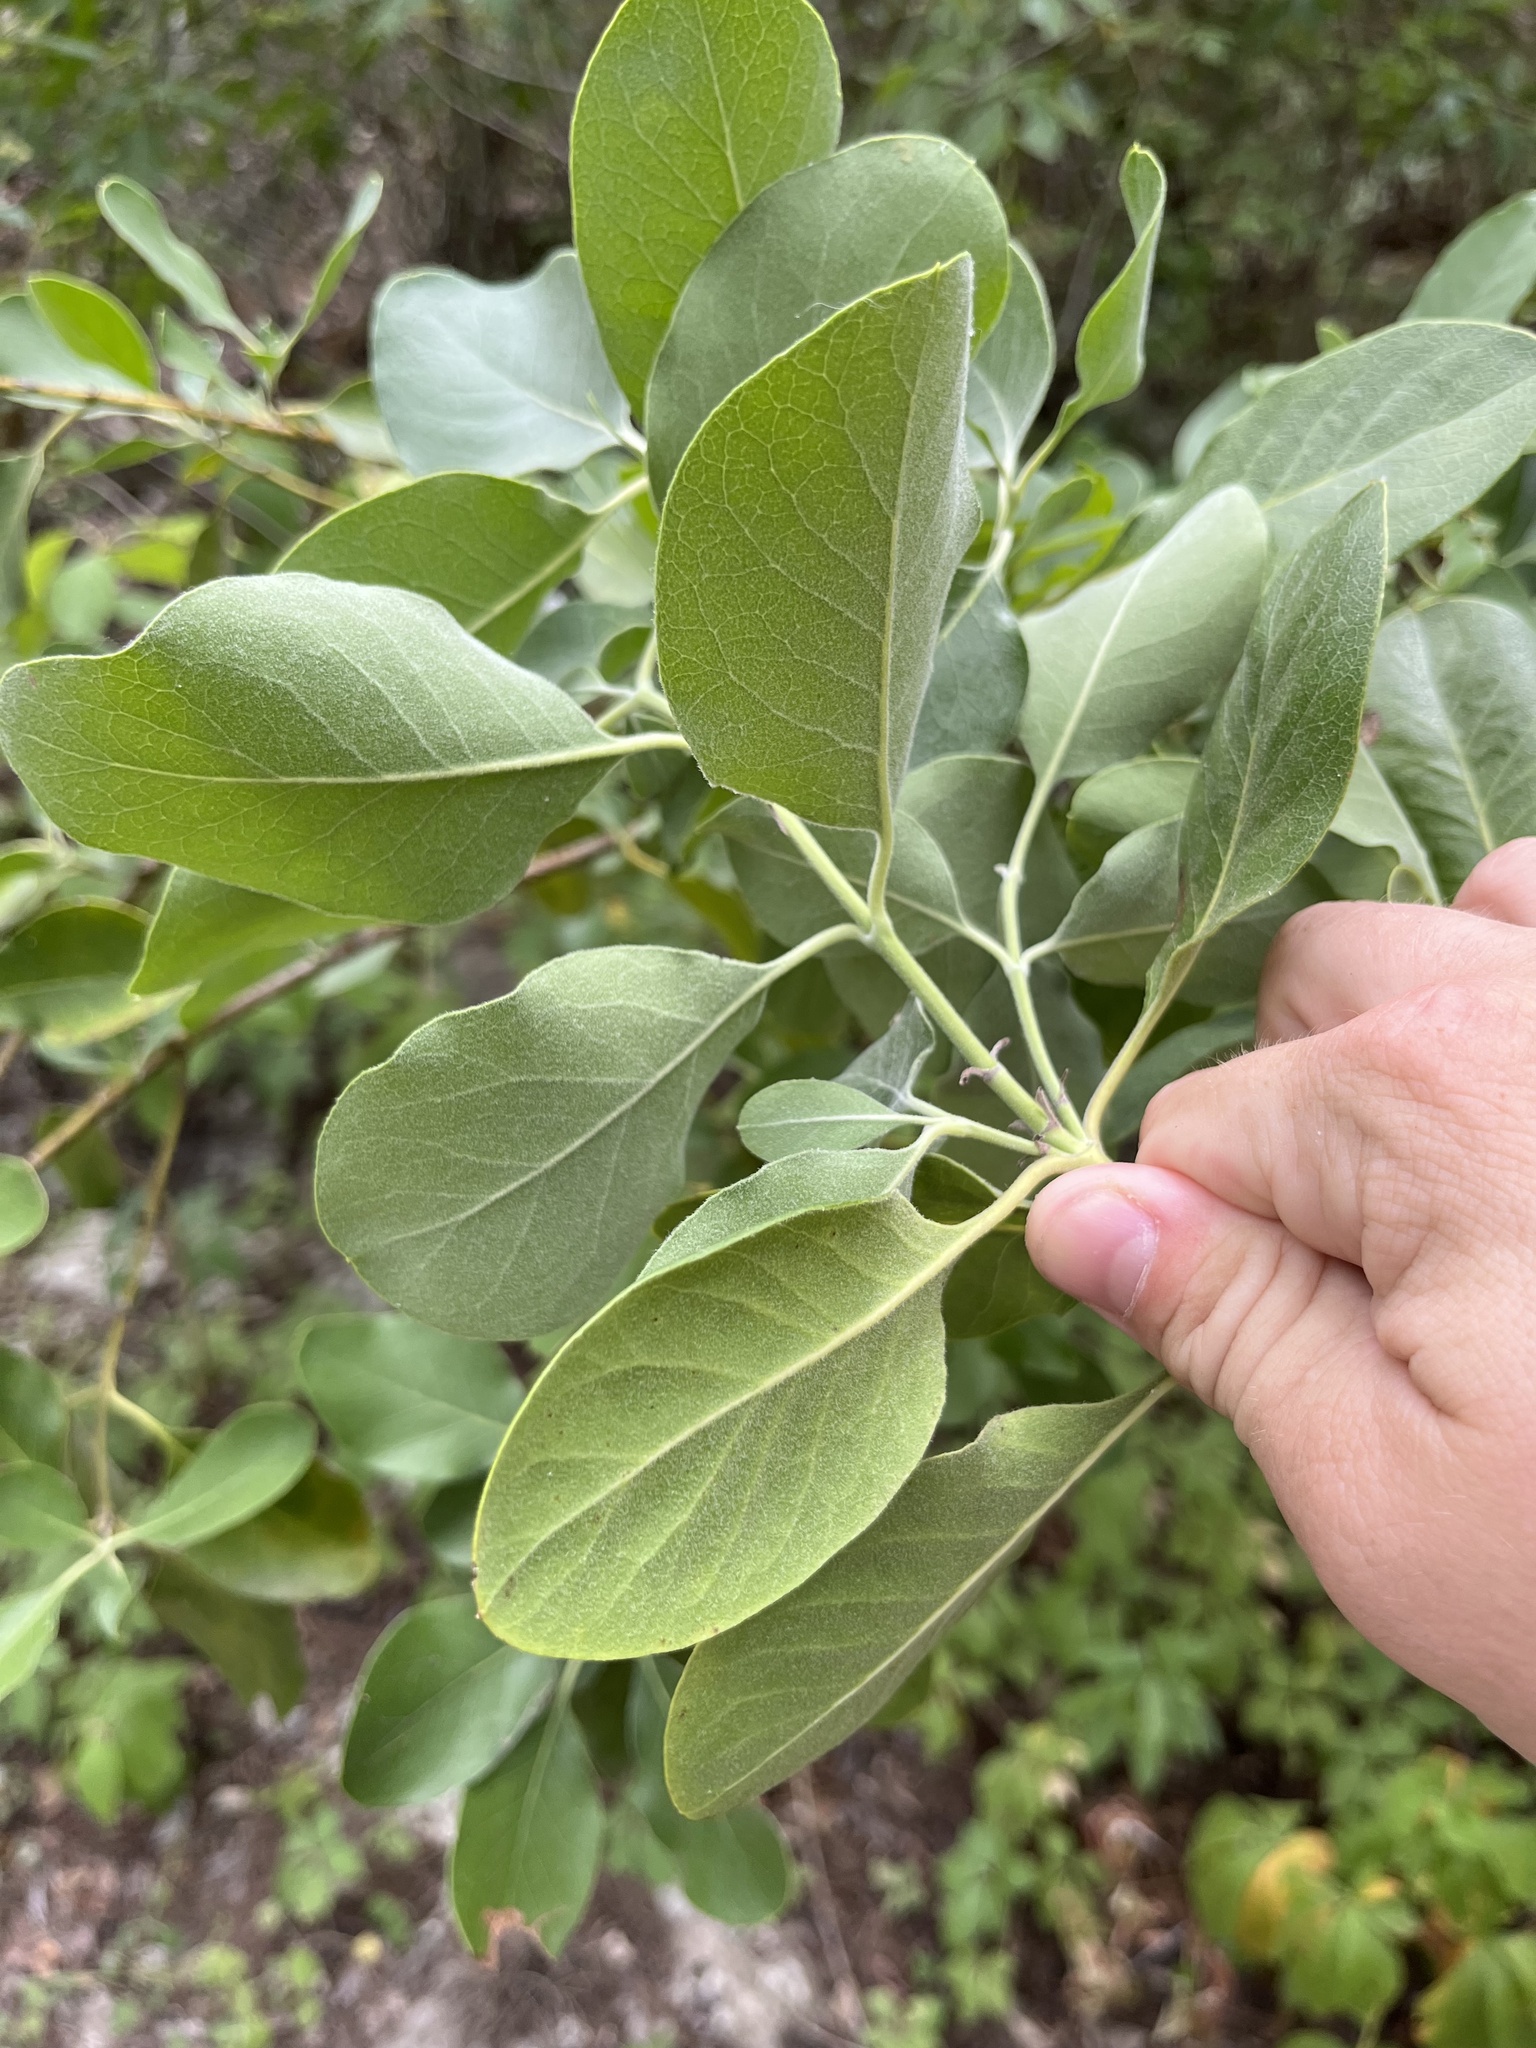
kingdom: Plantae
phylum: Tracheophyta
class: Magnoliopsida
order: Garryales
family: Garryaceae
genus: Garrya
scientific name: Garrya lindheimeri
